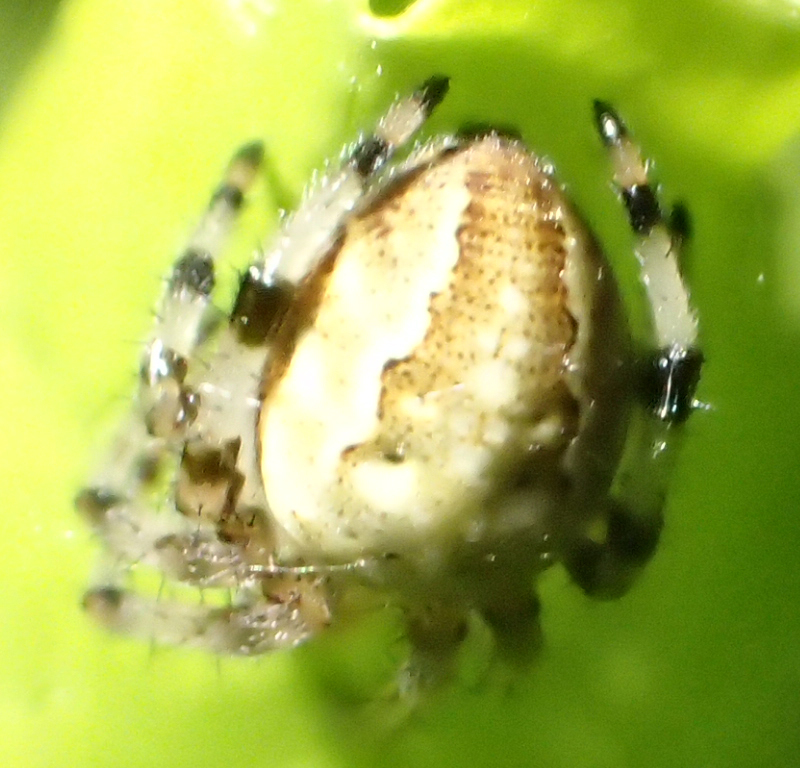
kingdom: Animalia
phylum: Arthropoda
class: Arachnida
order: Araneae
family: Araneidae
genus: Araneus
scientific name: Araneus trifolium
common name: Shamrock orbweaver
